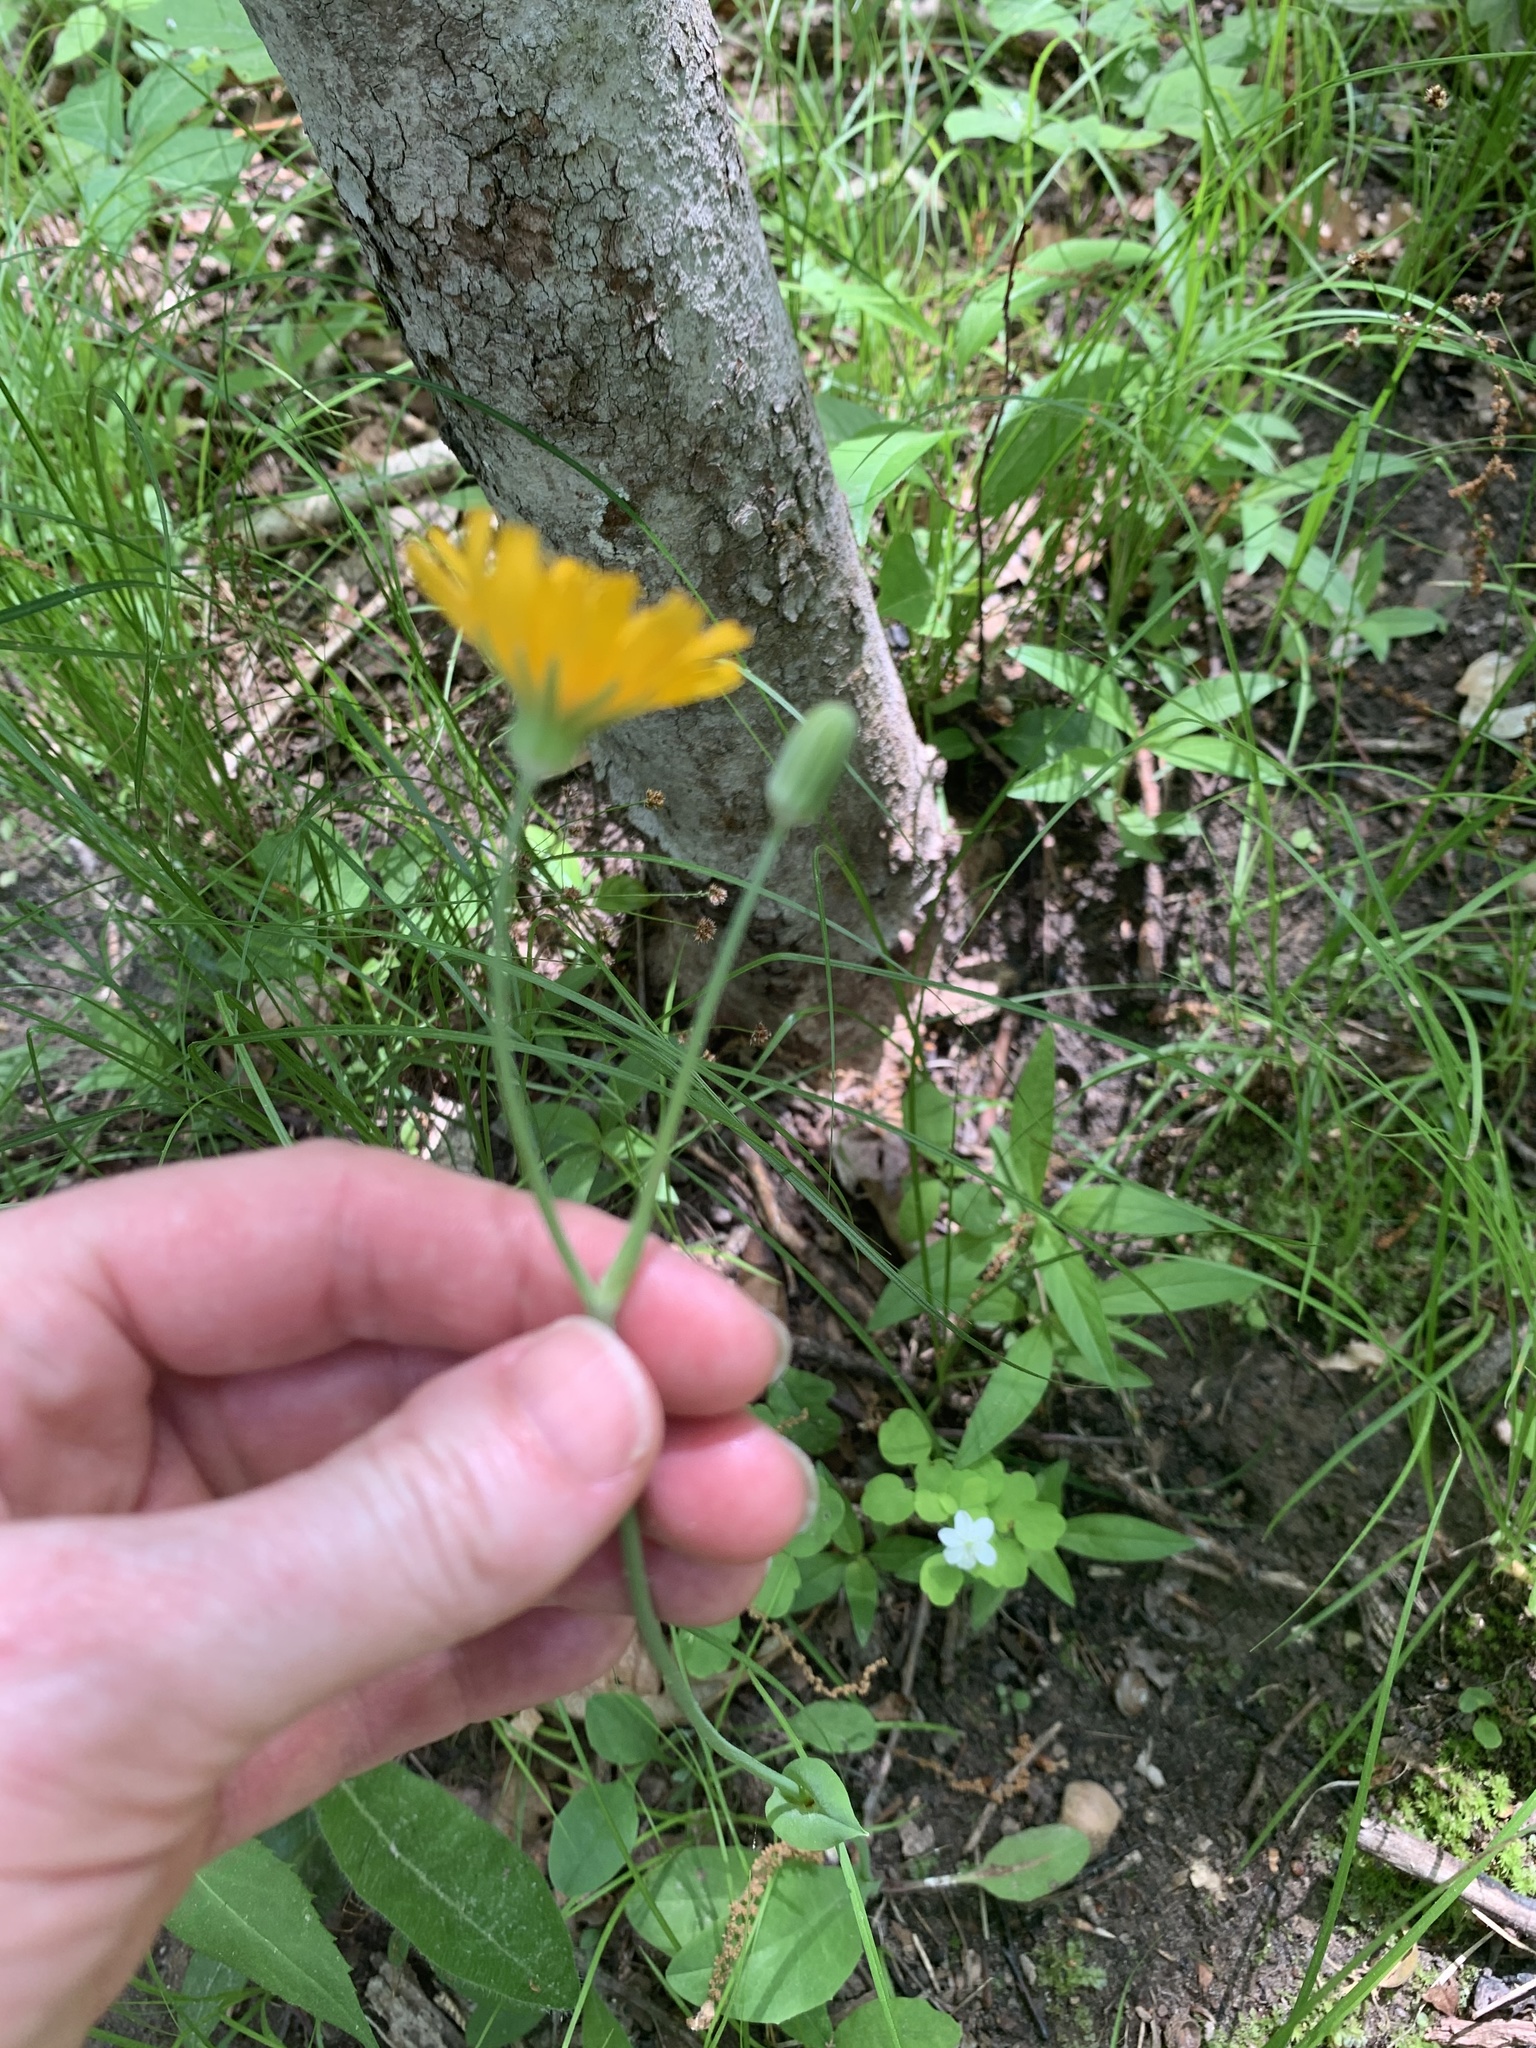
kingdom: Plantae
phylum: Tracheophyta
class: Magnoliopsida
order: Asterales
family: Asteraceae
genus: Krigia
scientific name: Krigia biflora
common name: Orange dwarf-dandelion
